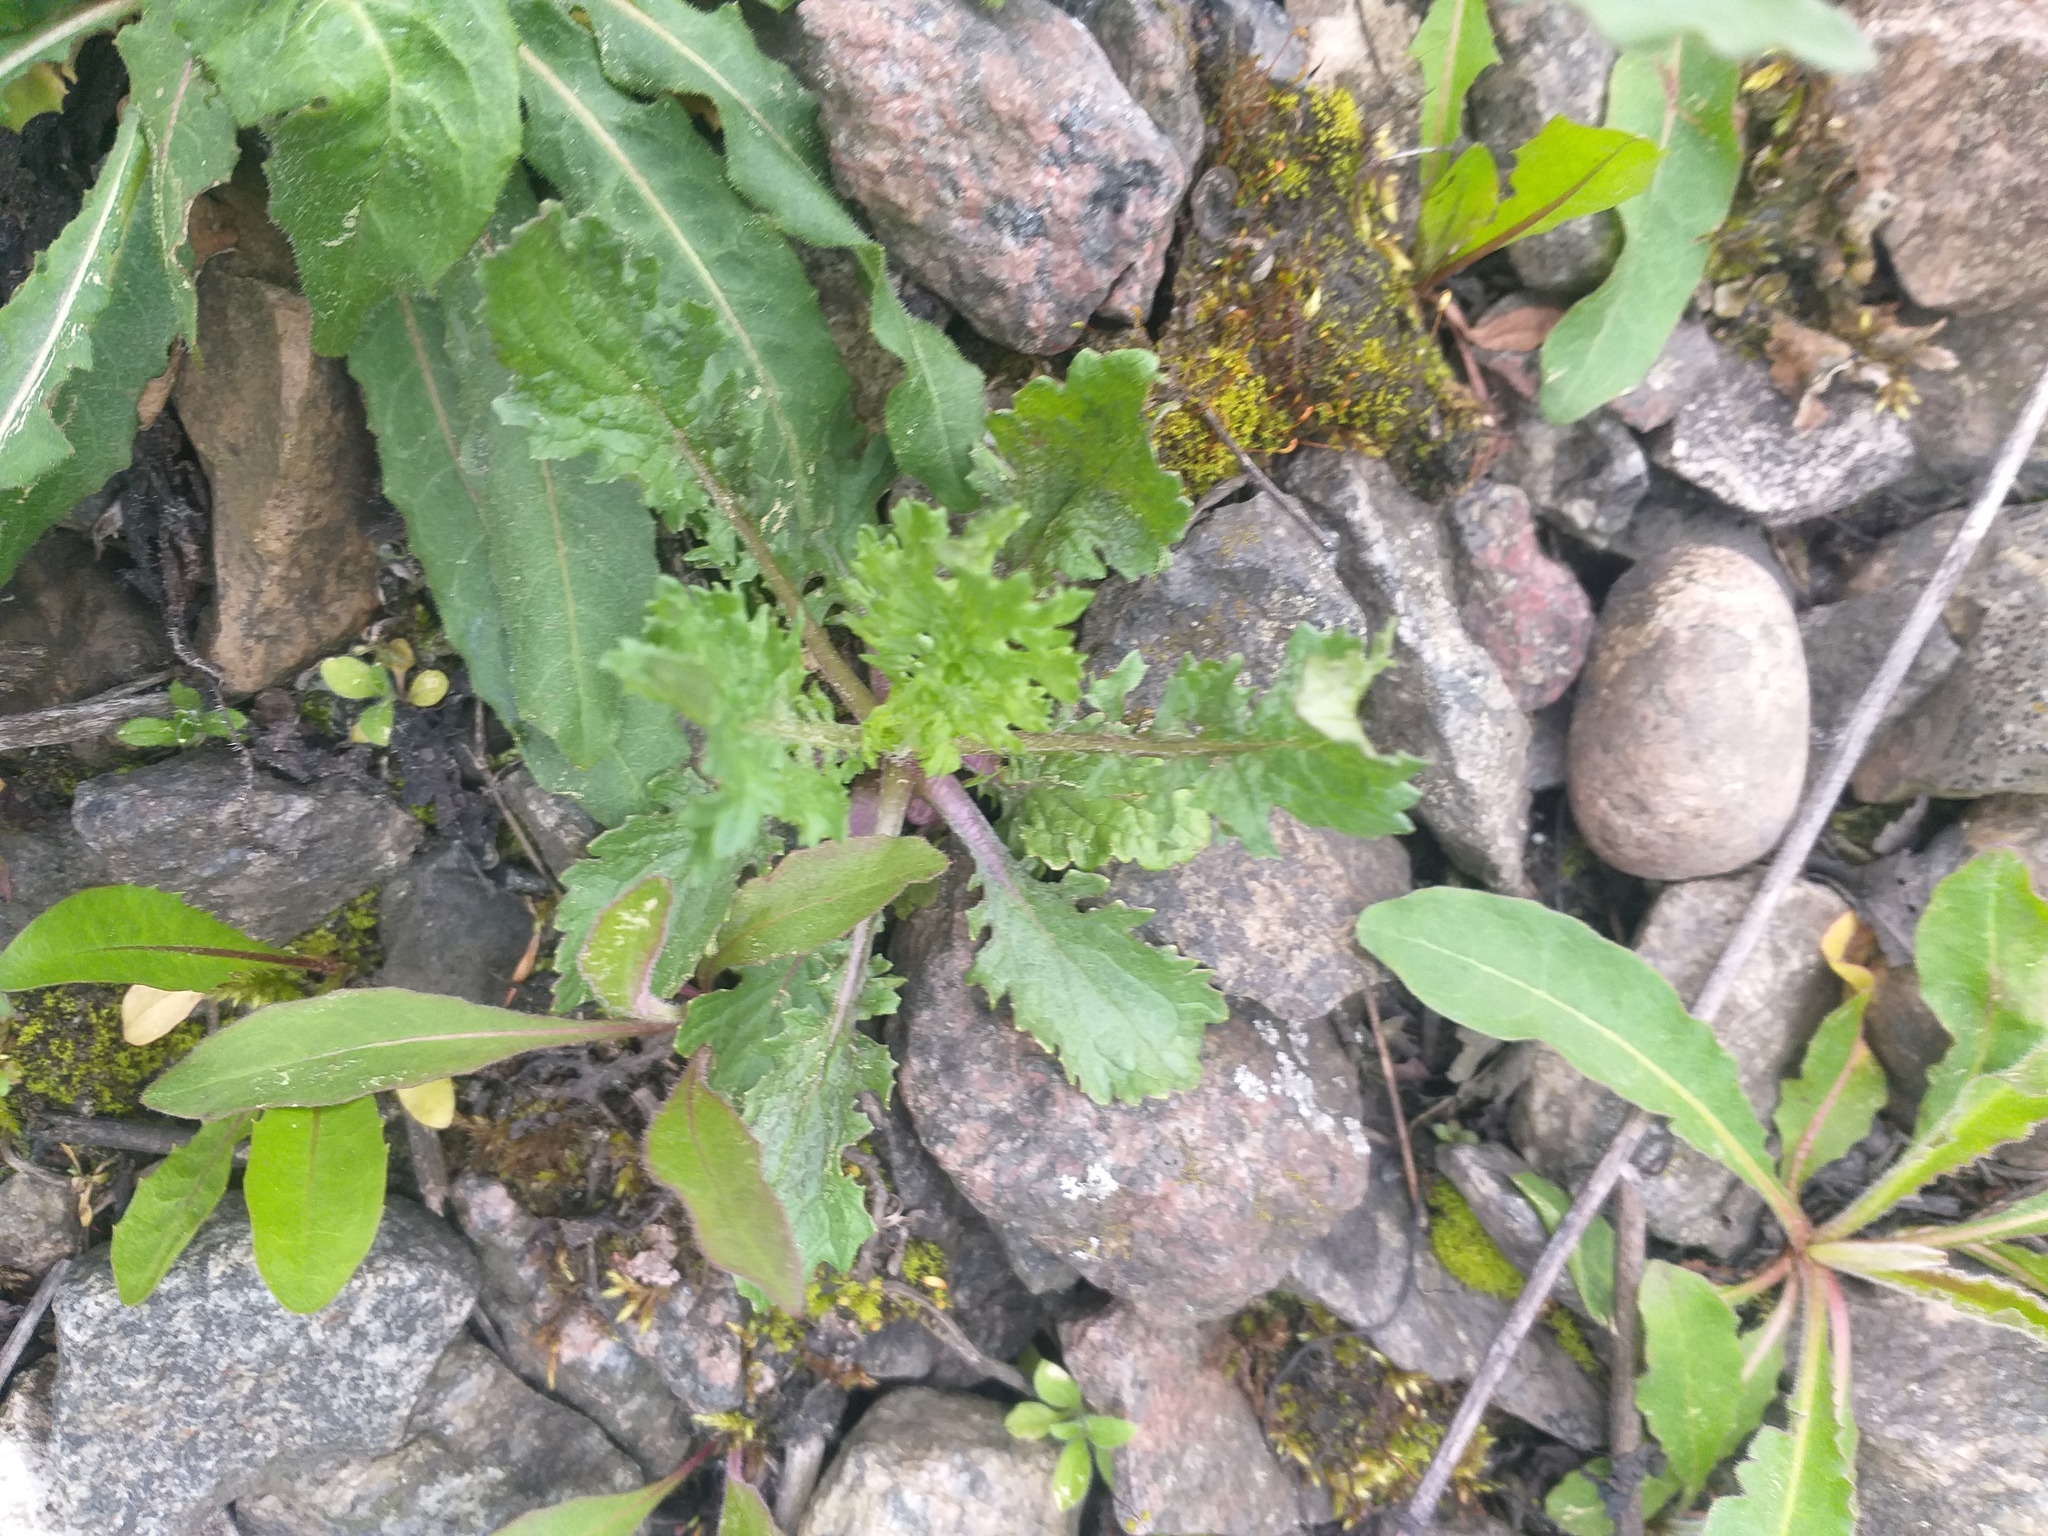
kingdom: Plantae
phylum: Tracheophyta
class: Magnoliopsida
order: Asterales
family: Asteraceae
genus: Jacobaea
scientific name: Jacobaea vulgaris
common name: Stinking willie
